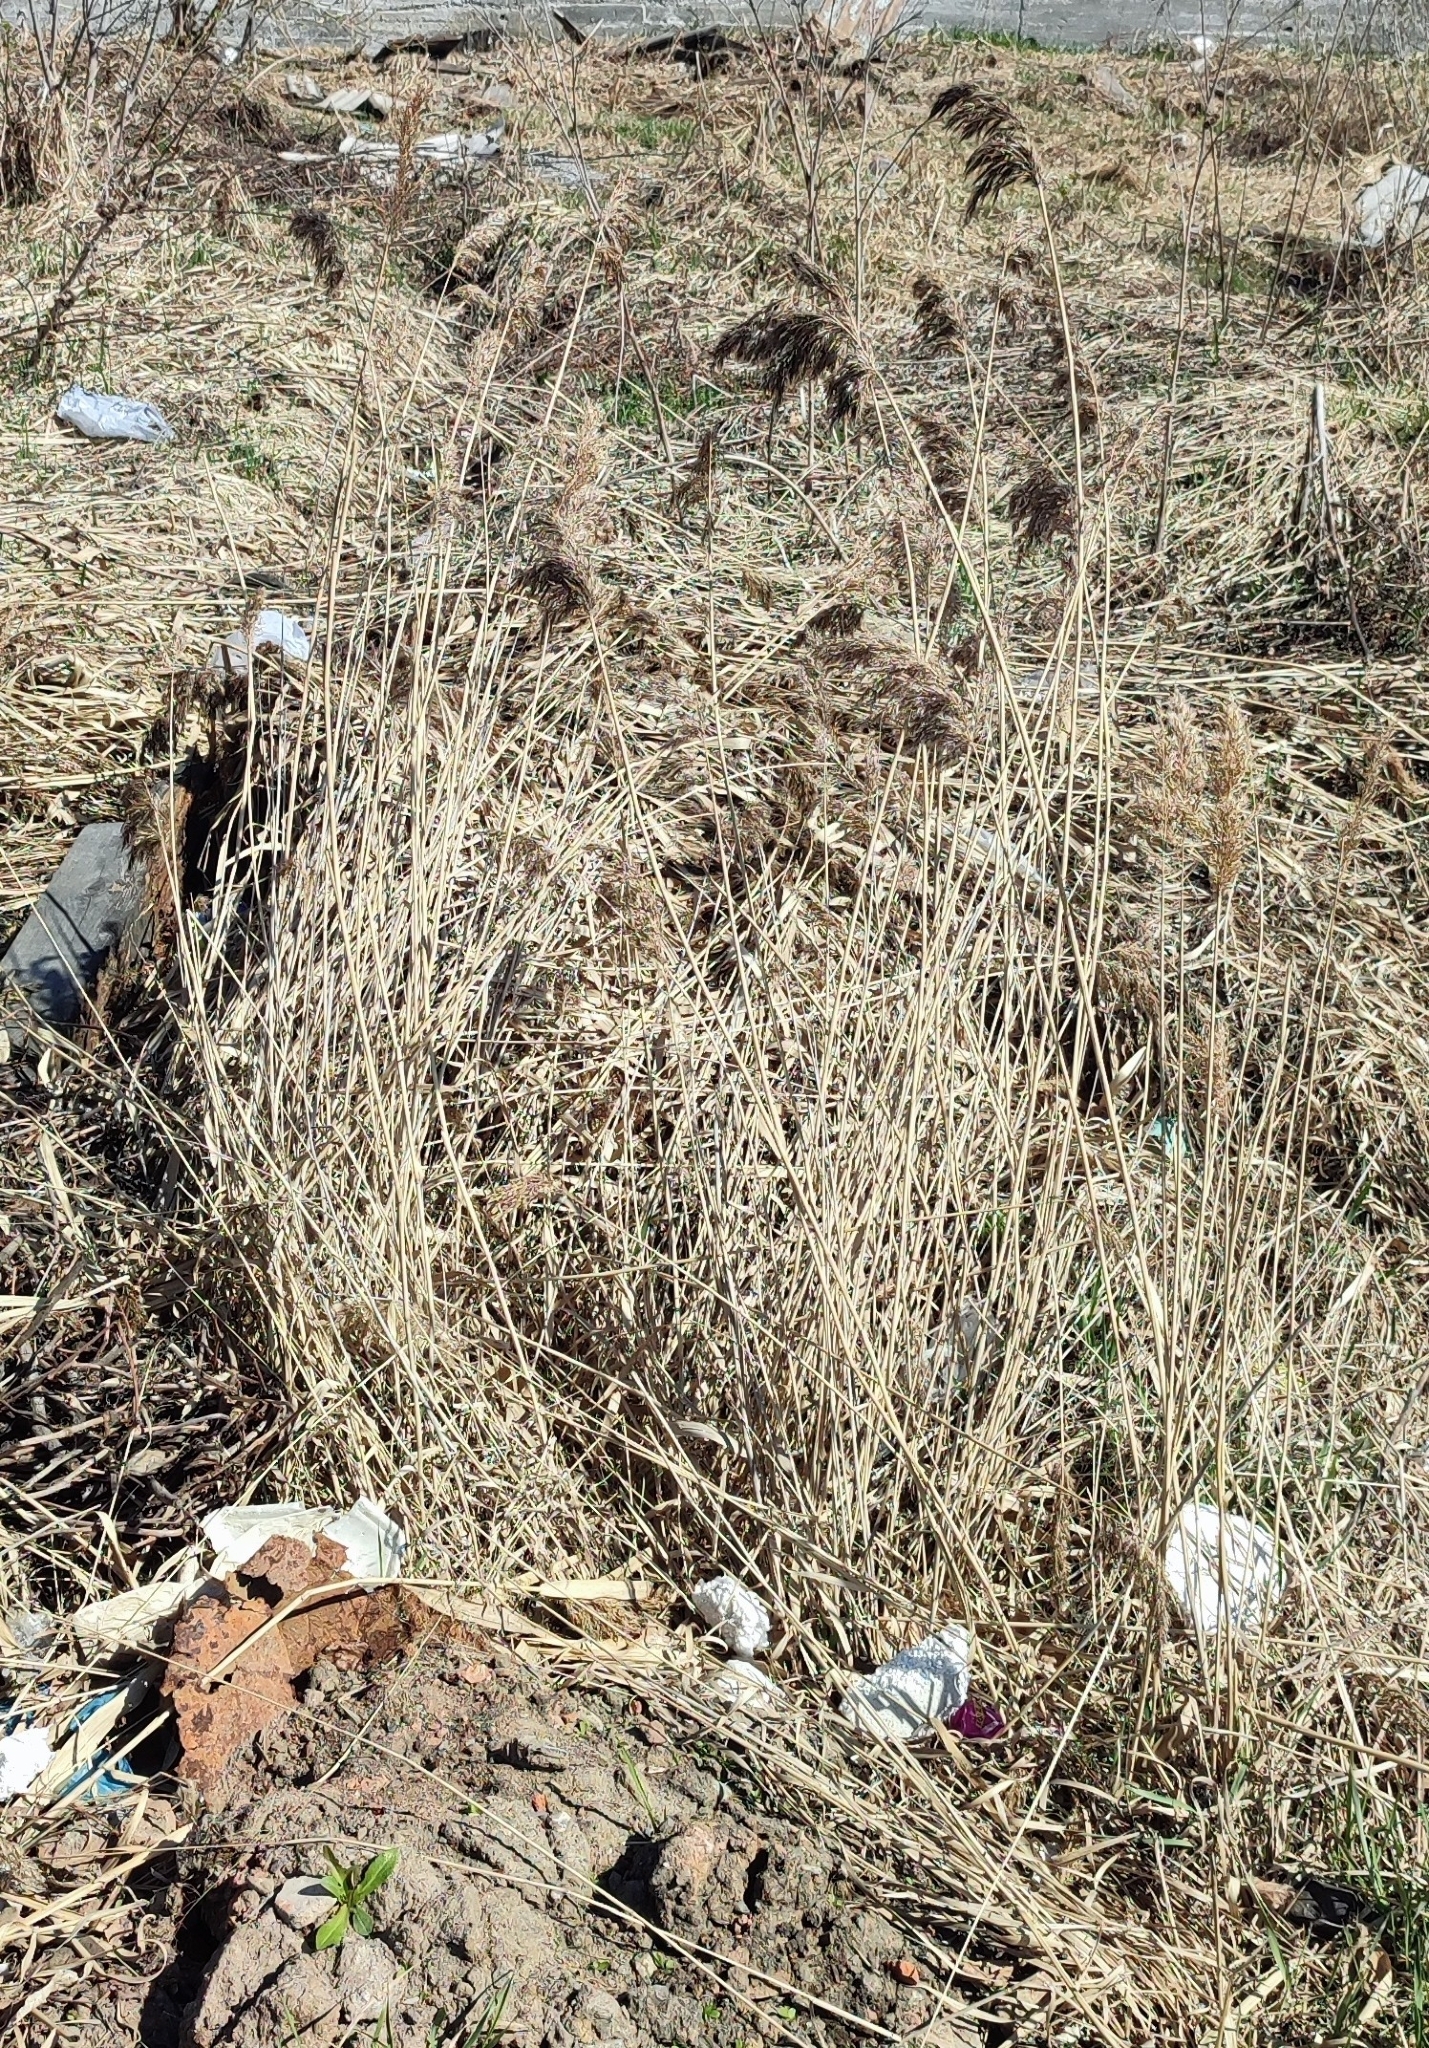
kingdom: Plantae
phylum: Tracheophyta
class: Liliopsida
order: Poales
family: Poaceae
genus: Phragmites
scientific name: Phragmites australis
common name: Common reed
